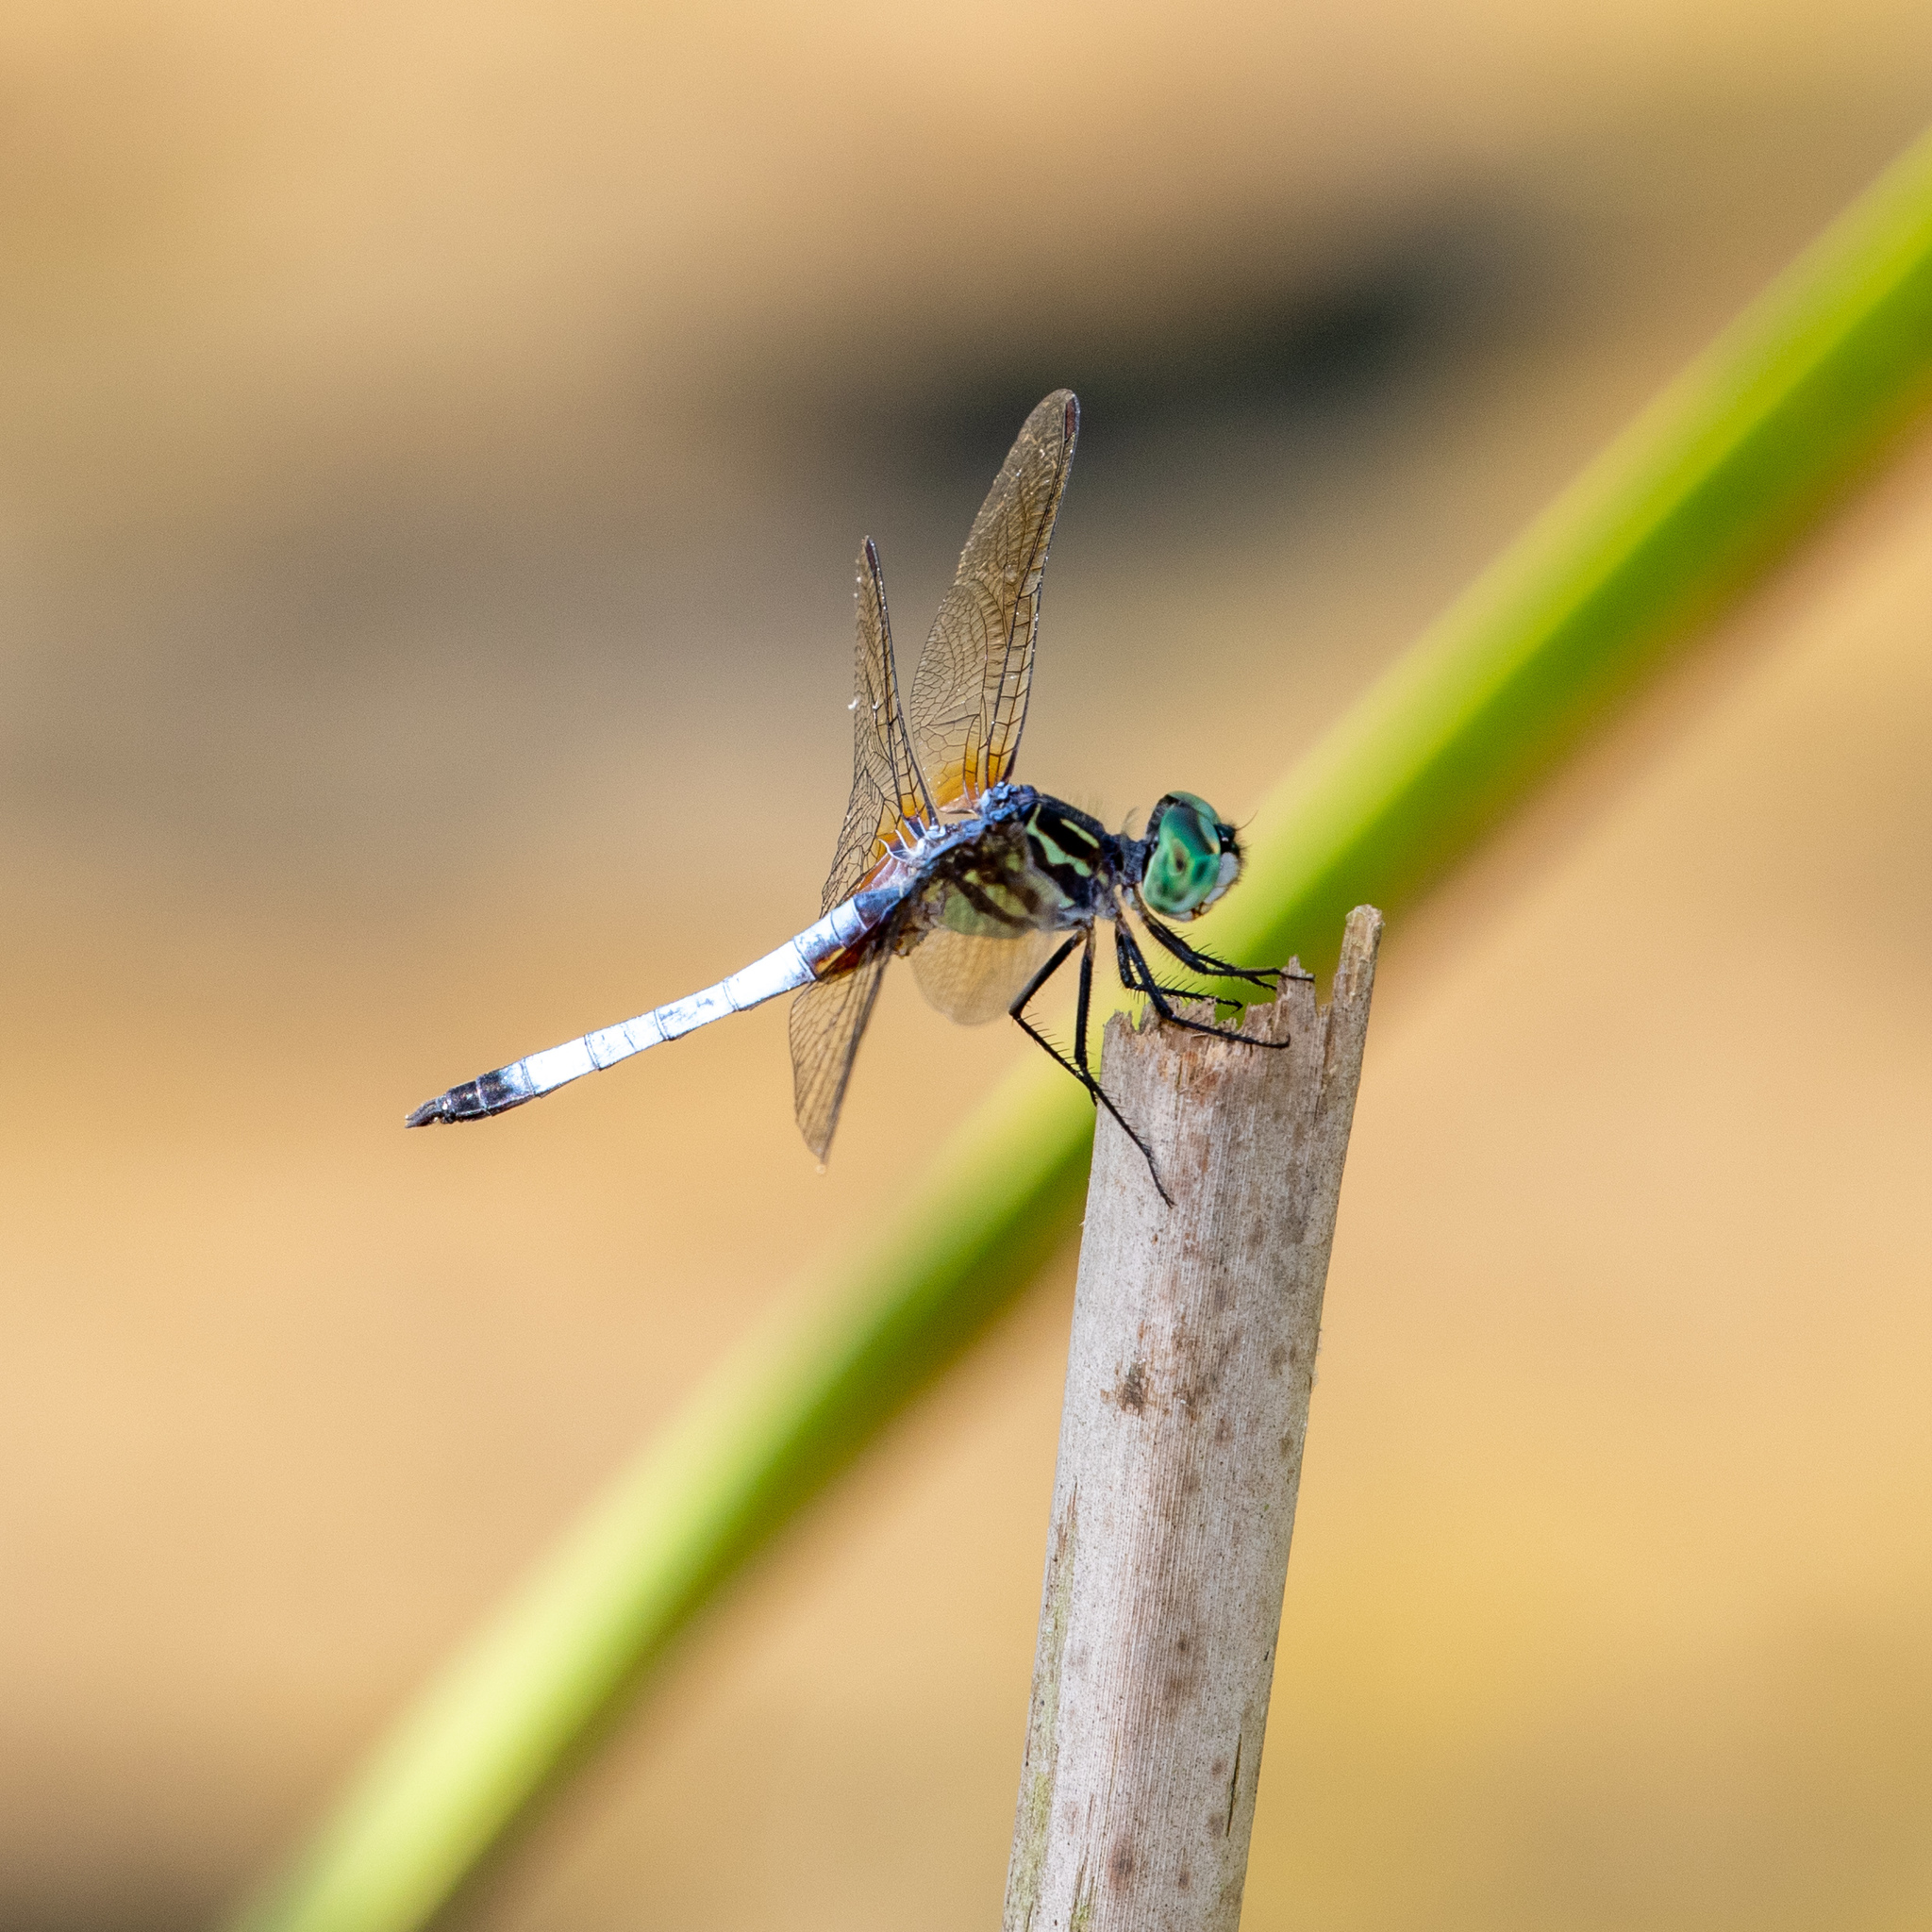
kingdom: Animalia
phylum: Arthropoda
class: Insecta
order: Odonata
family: Libellulidae
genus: Pachydiplax
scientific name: Pachydiplax longipennis
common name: Blue dasher
